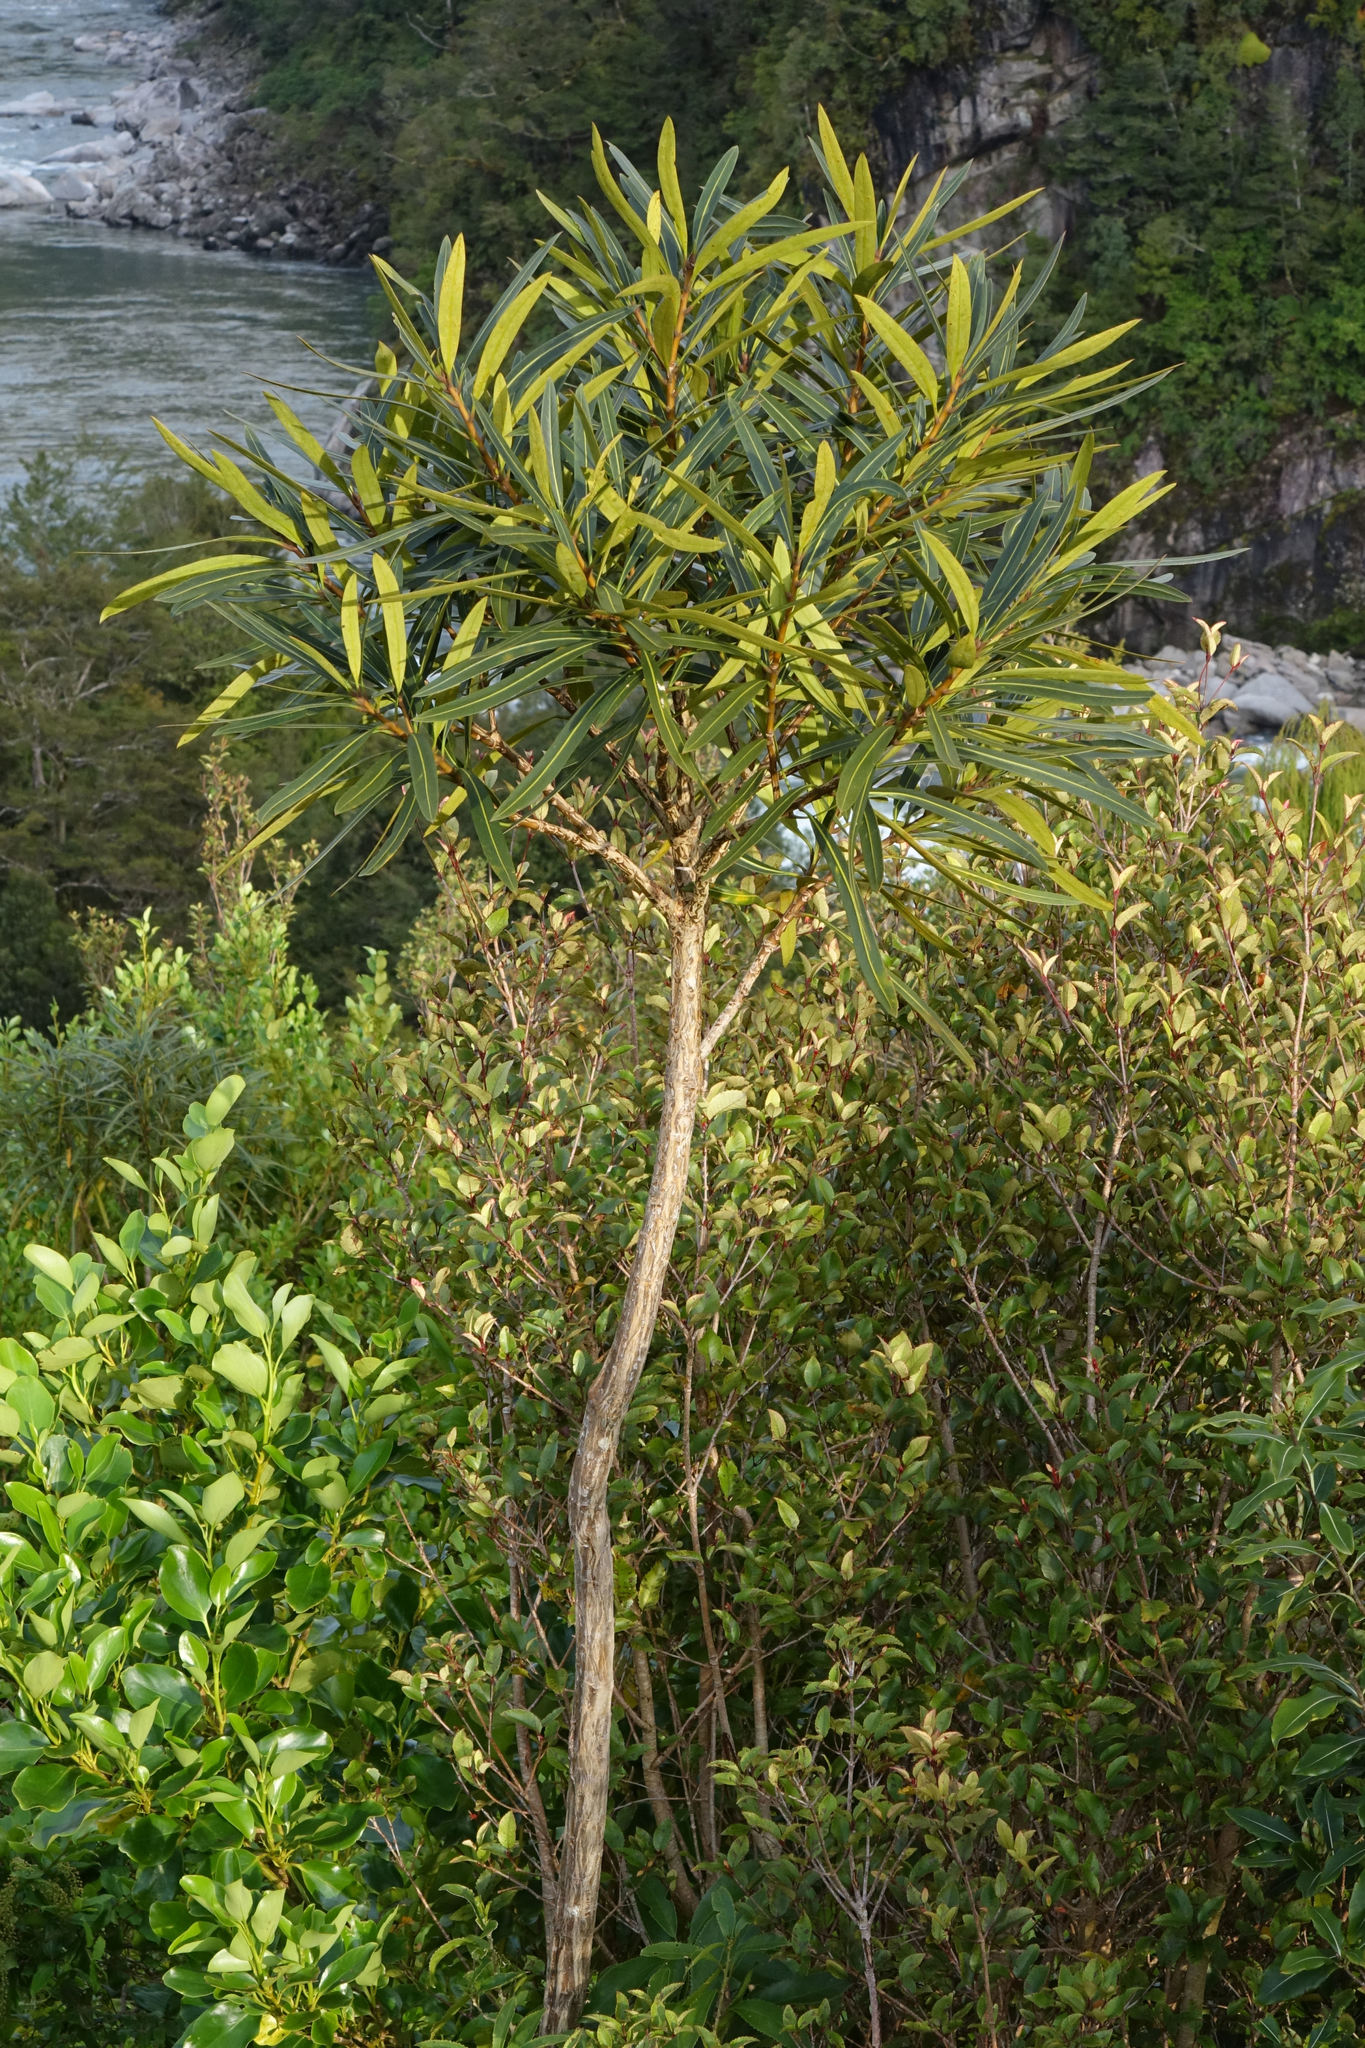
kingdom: Plantae
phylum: Tracheophyta
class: Magnoliopsida
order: Apiales
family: Araliaceae
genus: Pseudopanax
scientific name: Pseudopanax crassifolius
